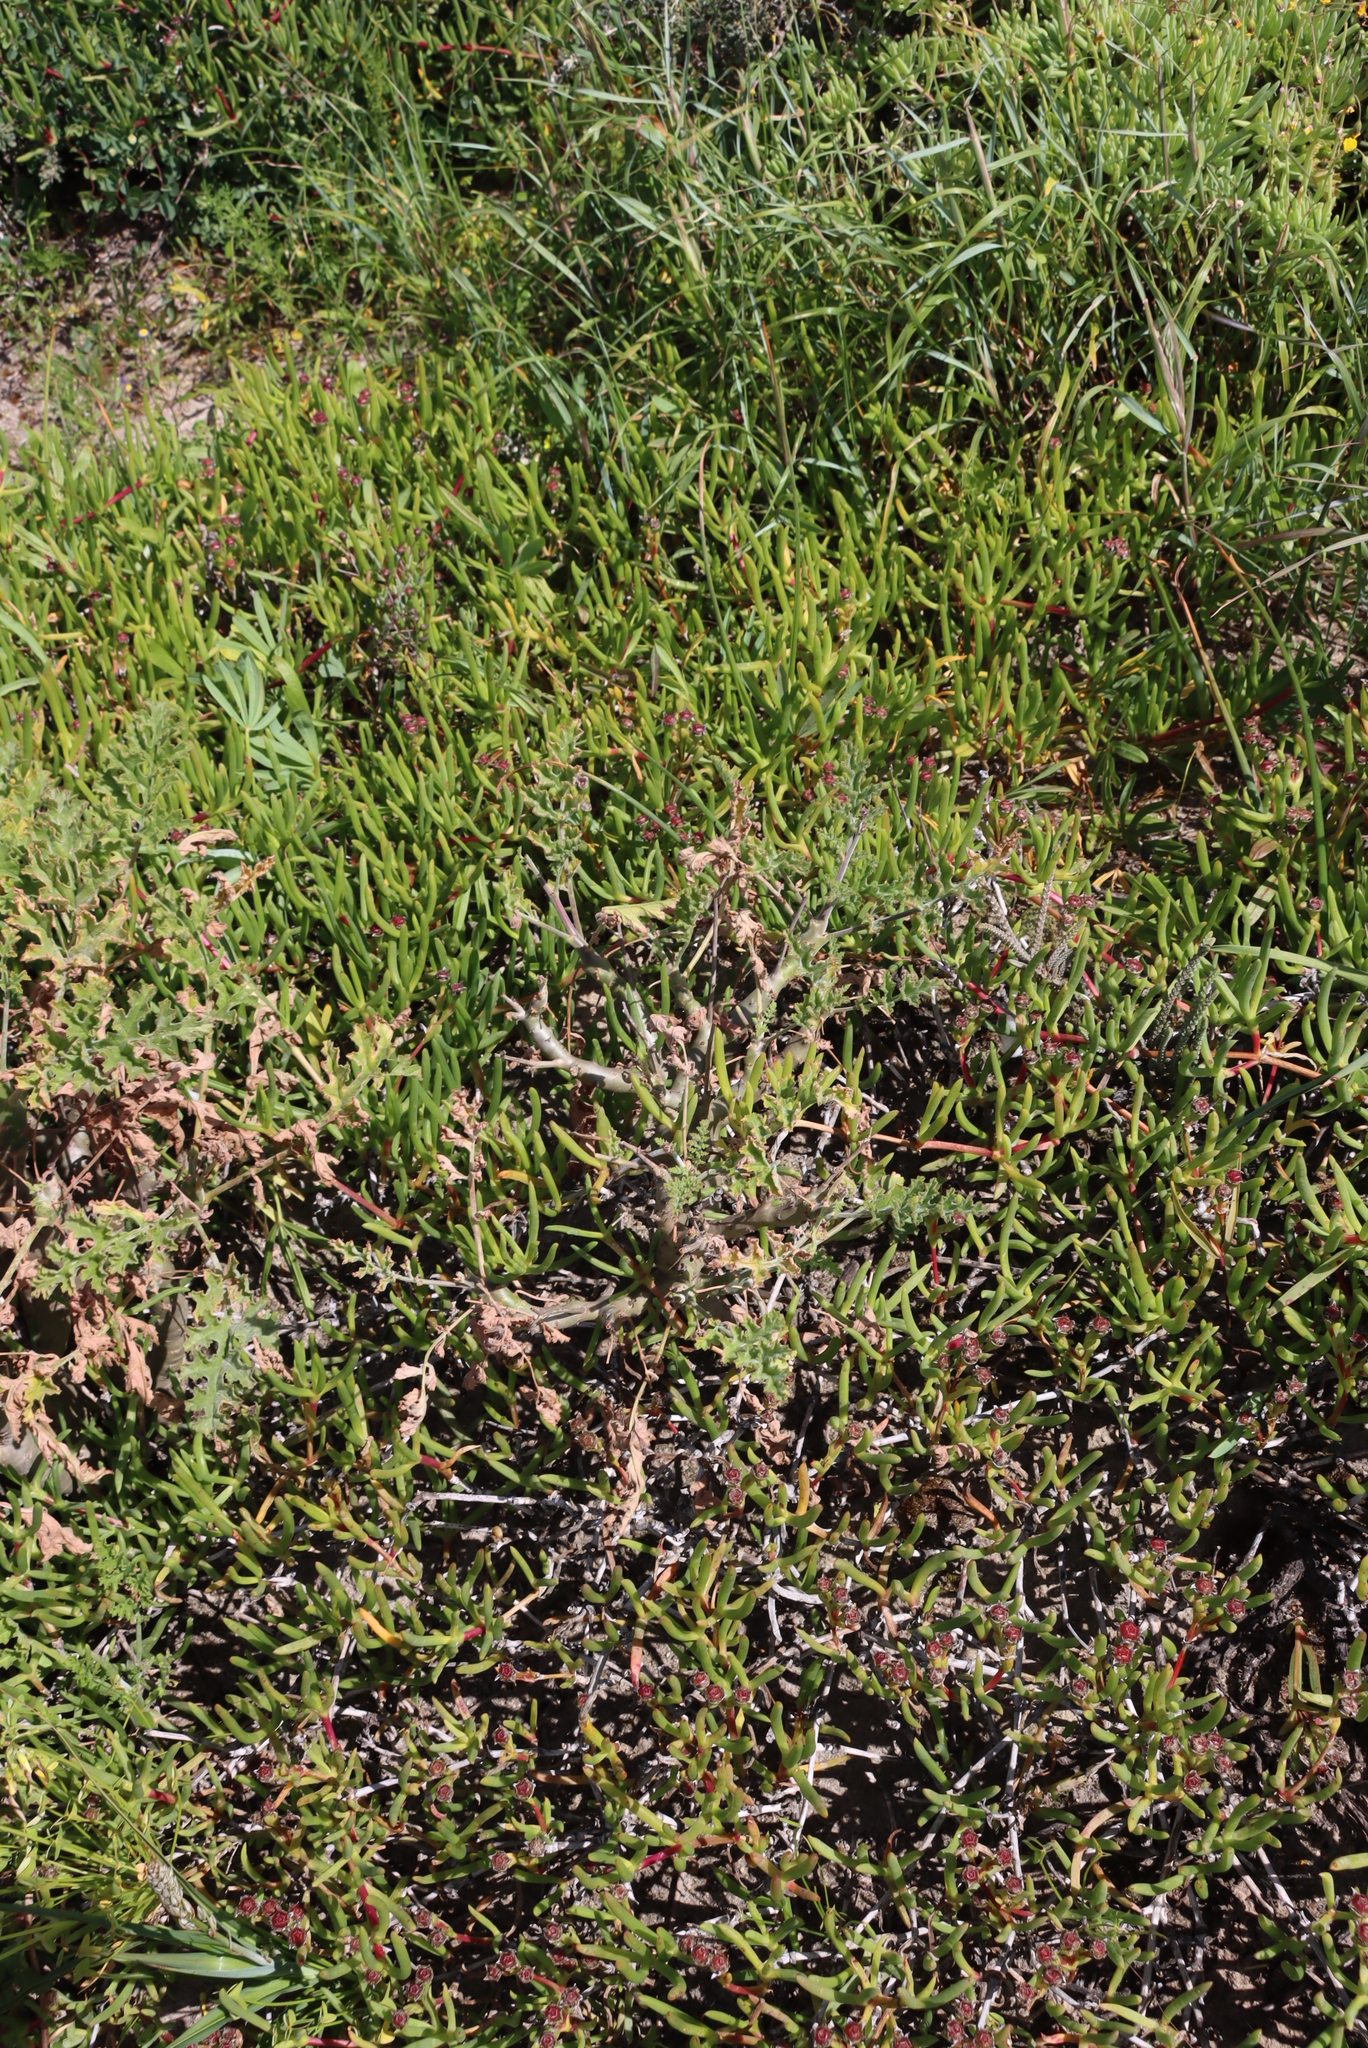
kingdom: Plantae
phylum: Tracheophyta
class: Magnoliopsida
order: Saxifragales
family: Crassulaceae
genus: Crassula
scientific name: Crassula muscosa
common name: Toy-cypress
